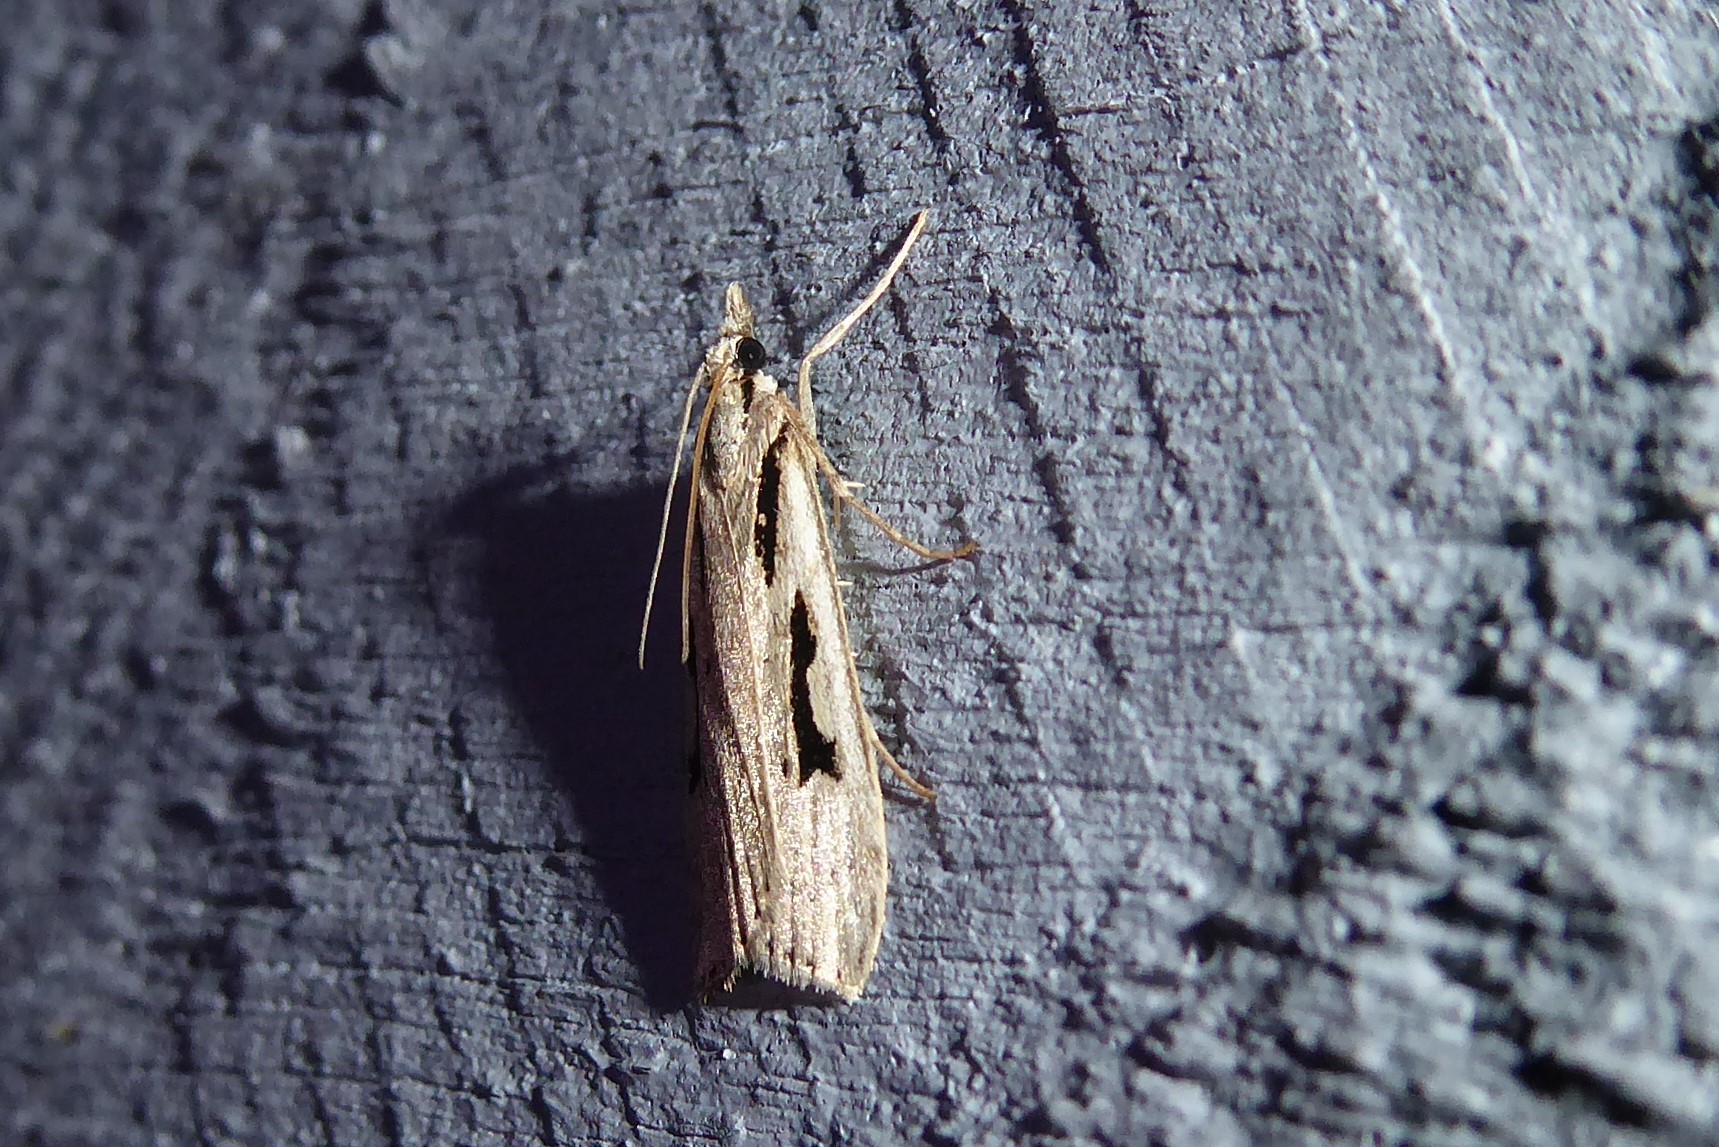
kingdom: Animalia
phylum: Arthropoda
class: Insecta
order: Lepidoptera
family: Crambidae
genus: Scoparia
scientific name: Scoparia rotuellus
